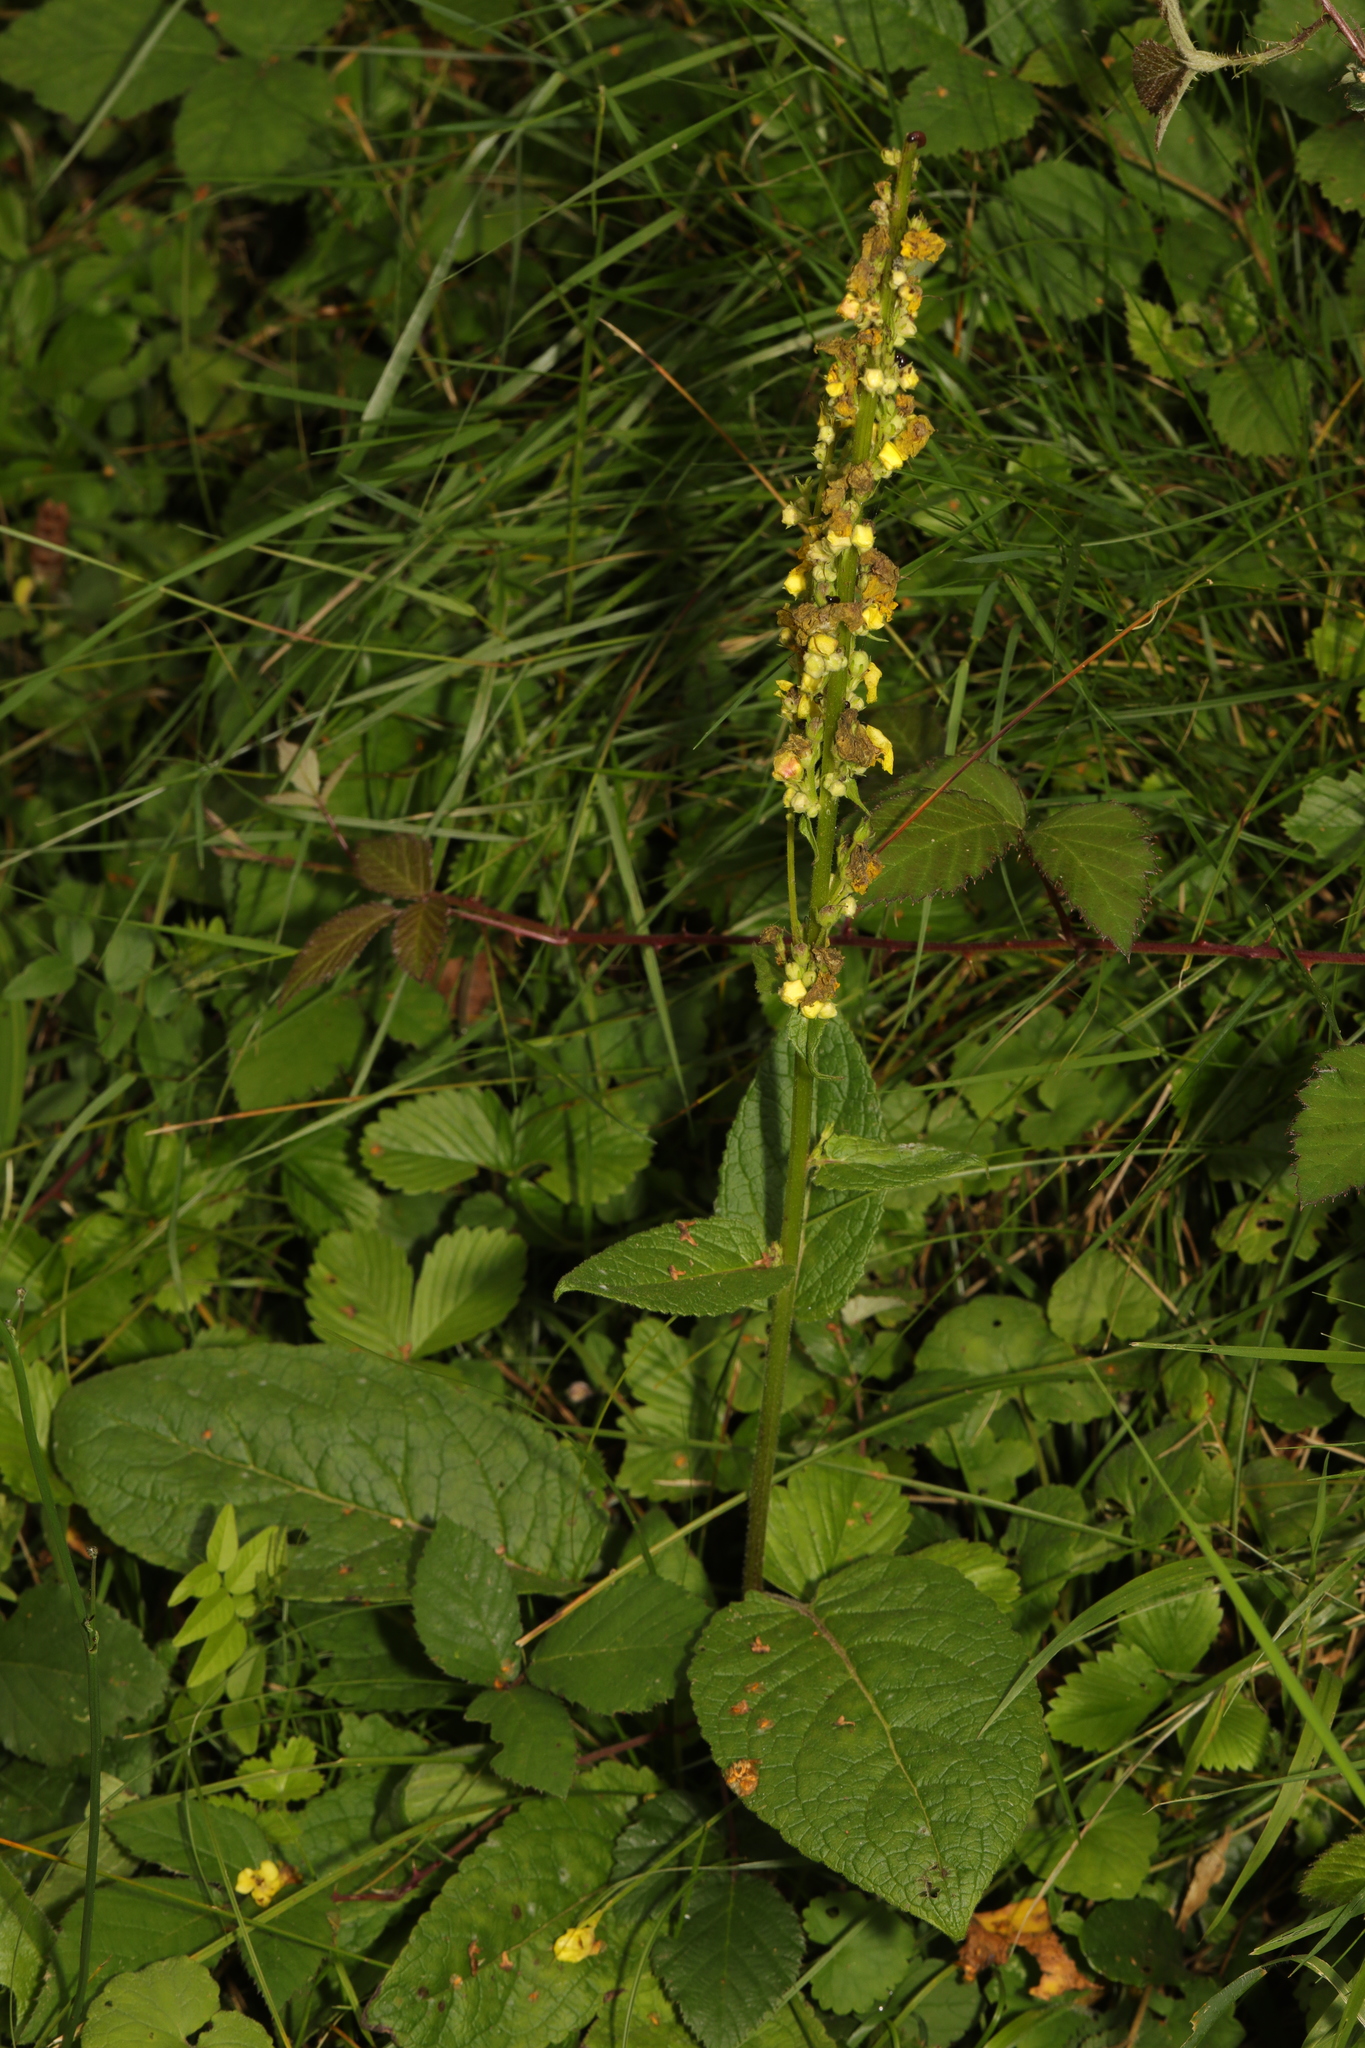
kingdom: Plantae
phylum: Tracheophyta
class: Magnoliopsida
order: Lamiales
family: Scrophulariaceae
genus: Verbascum
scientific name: Verbascum nigrum
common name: Dark mullein
